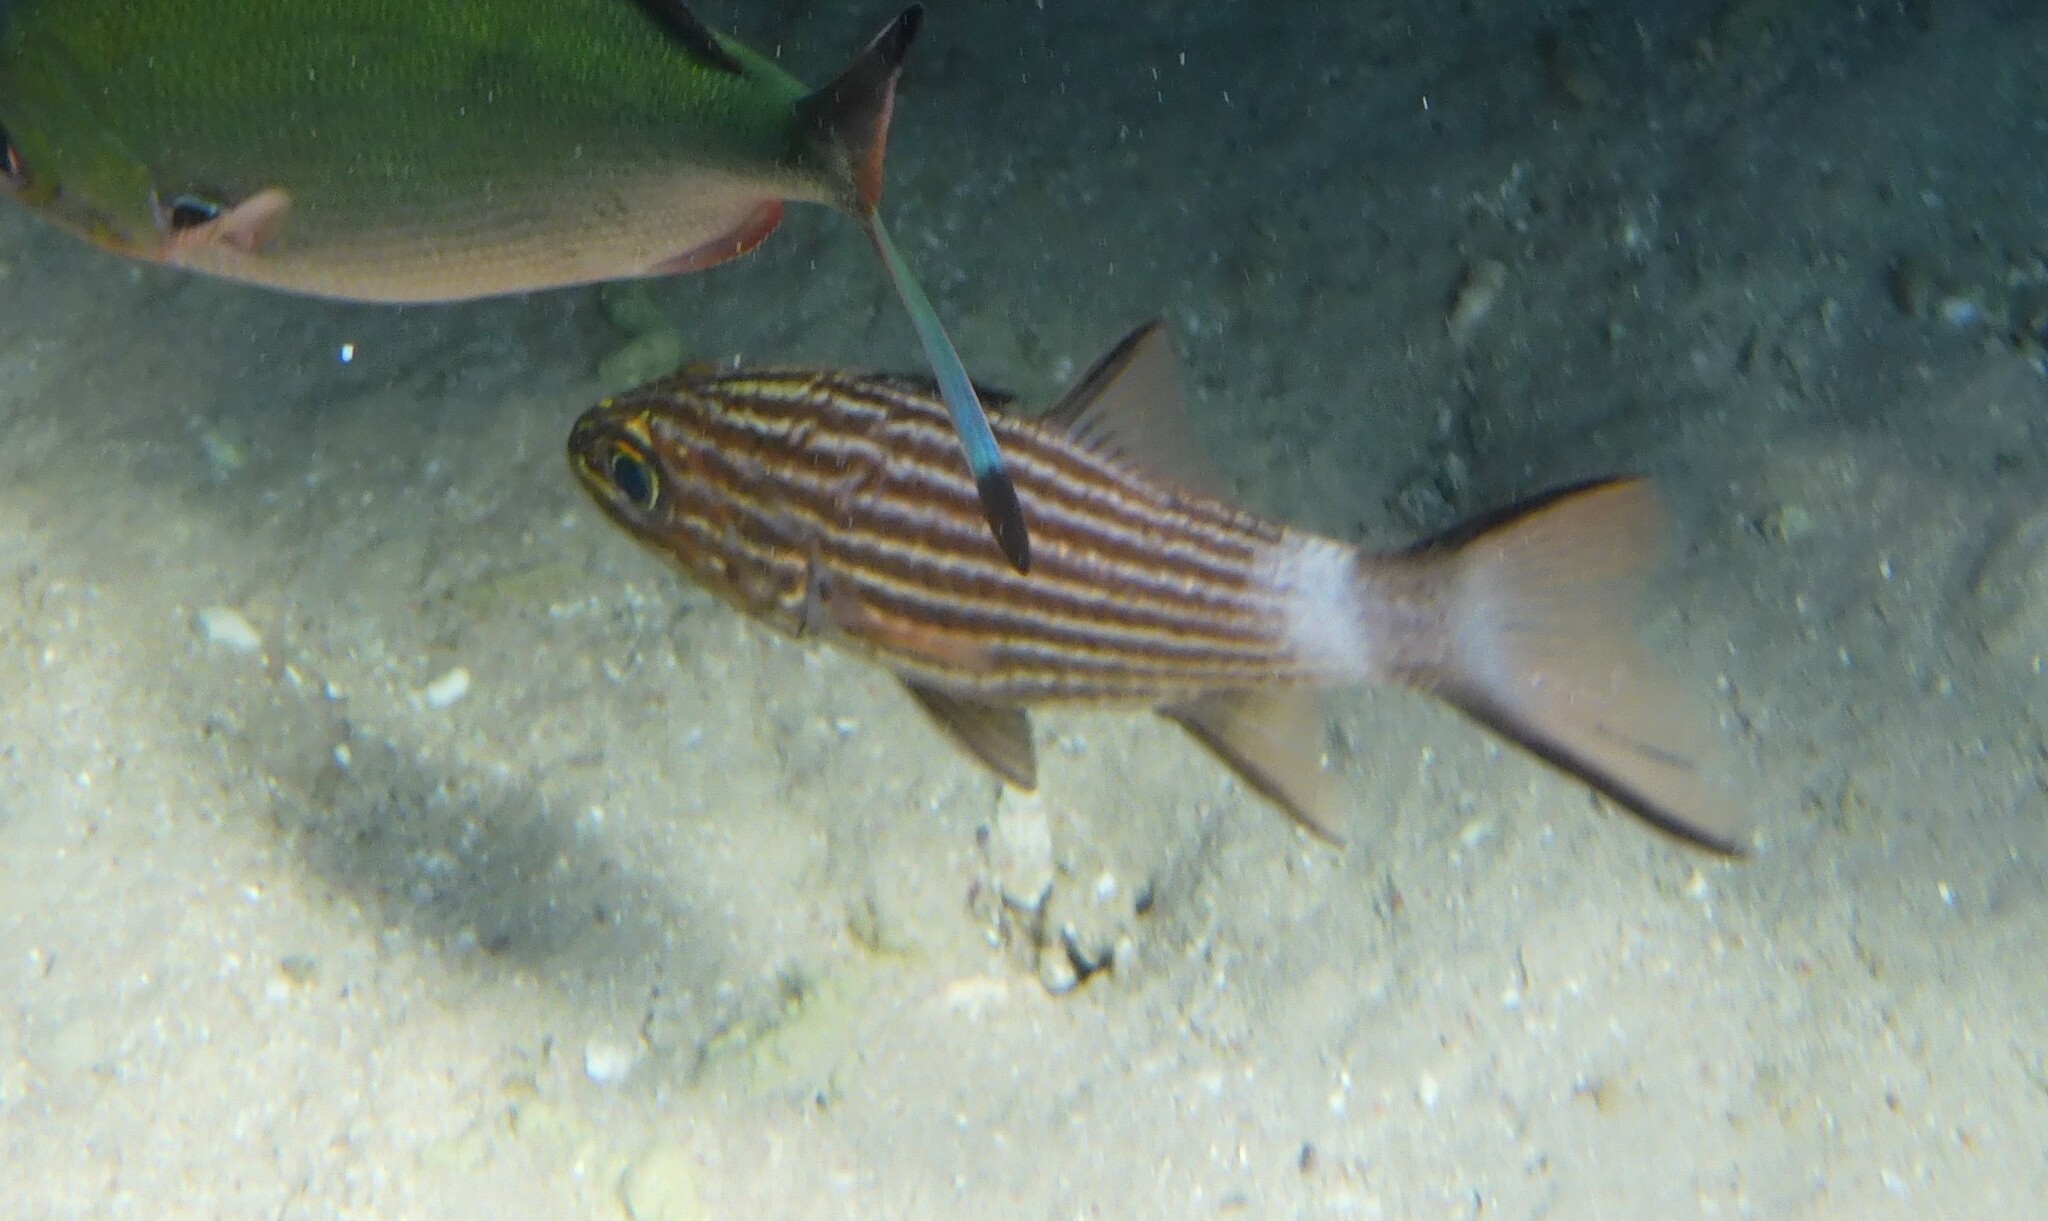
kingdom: Animalia
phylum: Chordata
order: Perciformes
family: Apogonidae
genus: Cheilodipterus
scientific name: Cheilodipterus macrodon
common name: Eight-lined cardinalfish
